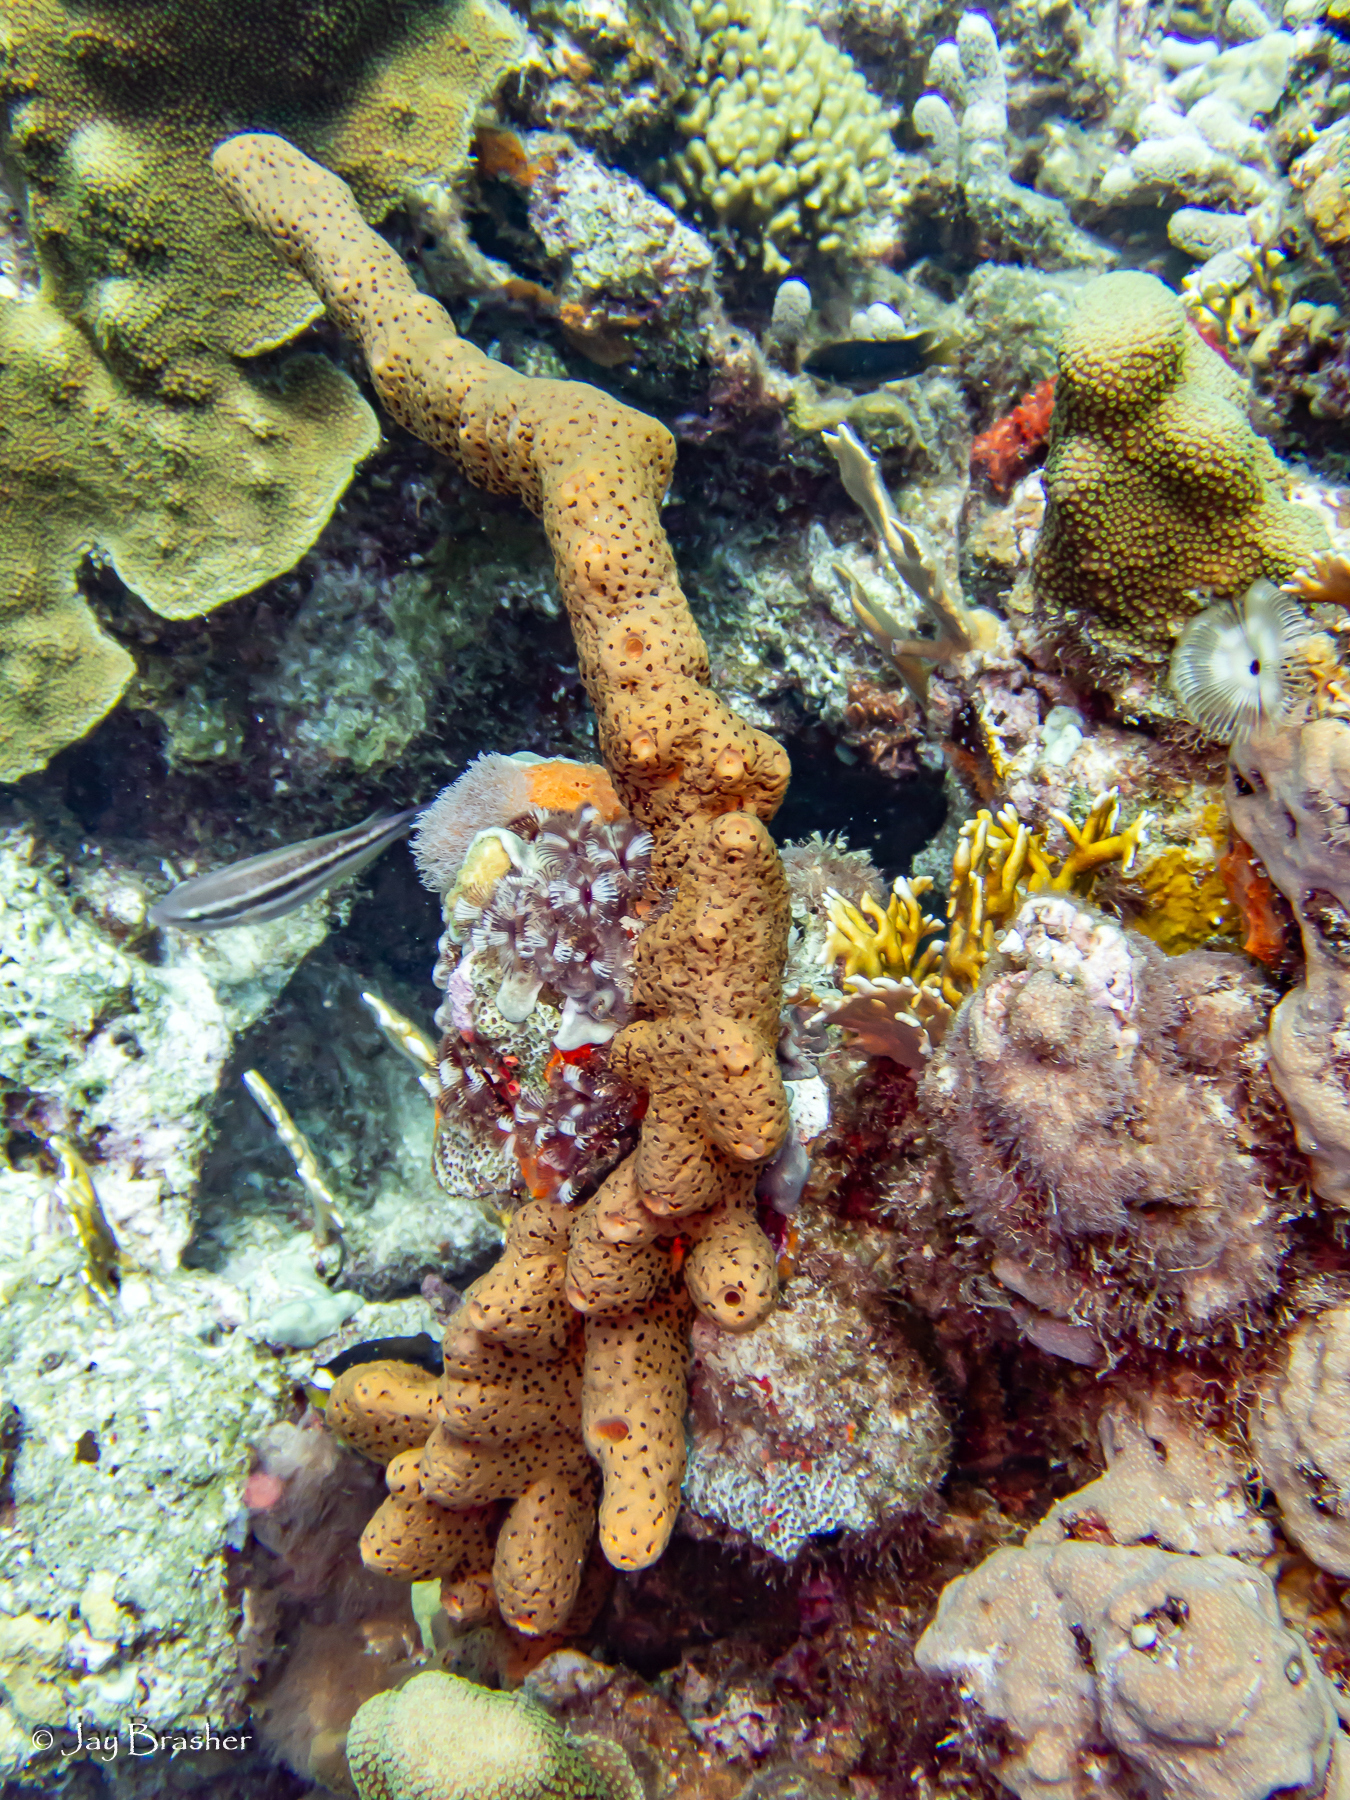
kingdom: Animalia
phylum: Porifera
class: Demospongiae
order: Agelasida
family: Agelasidae
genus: Agelas
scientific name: Agelas conifera
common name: Brown tube sponge
